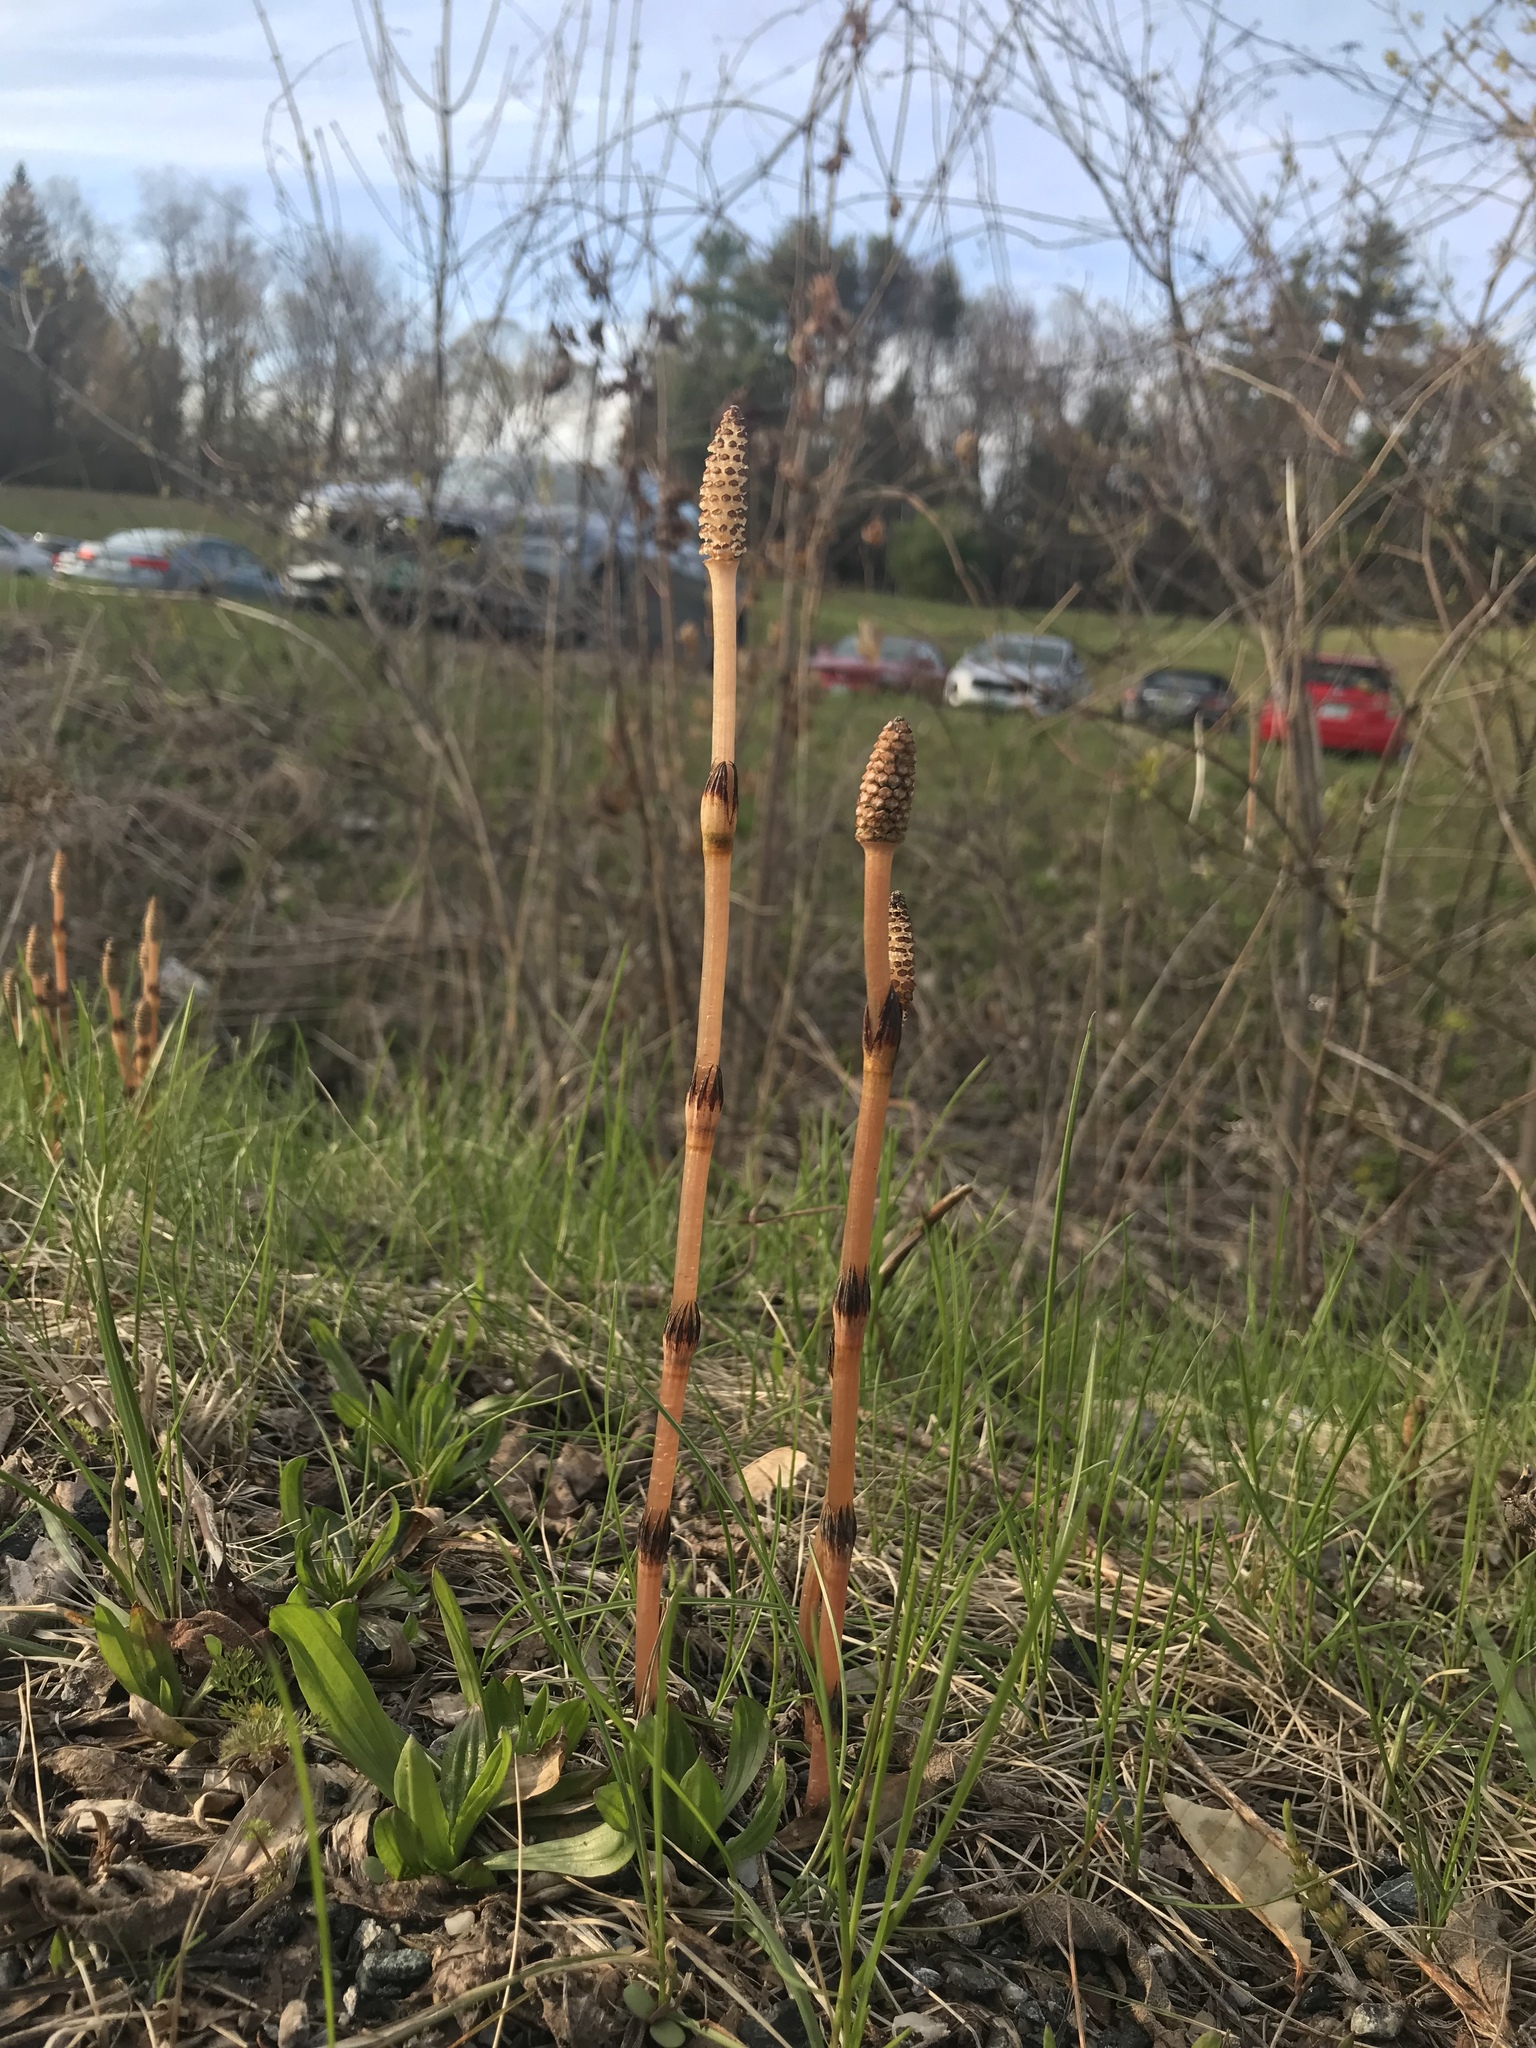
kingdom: Plantae
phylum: Tracheophyta
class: Polypodiopsida
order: Equisetales
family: Equisetaceae
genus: Equisetum
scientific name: Equisetum arvense
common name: Field horsetail
